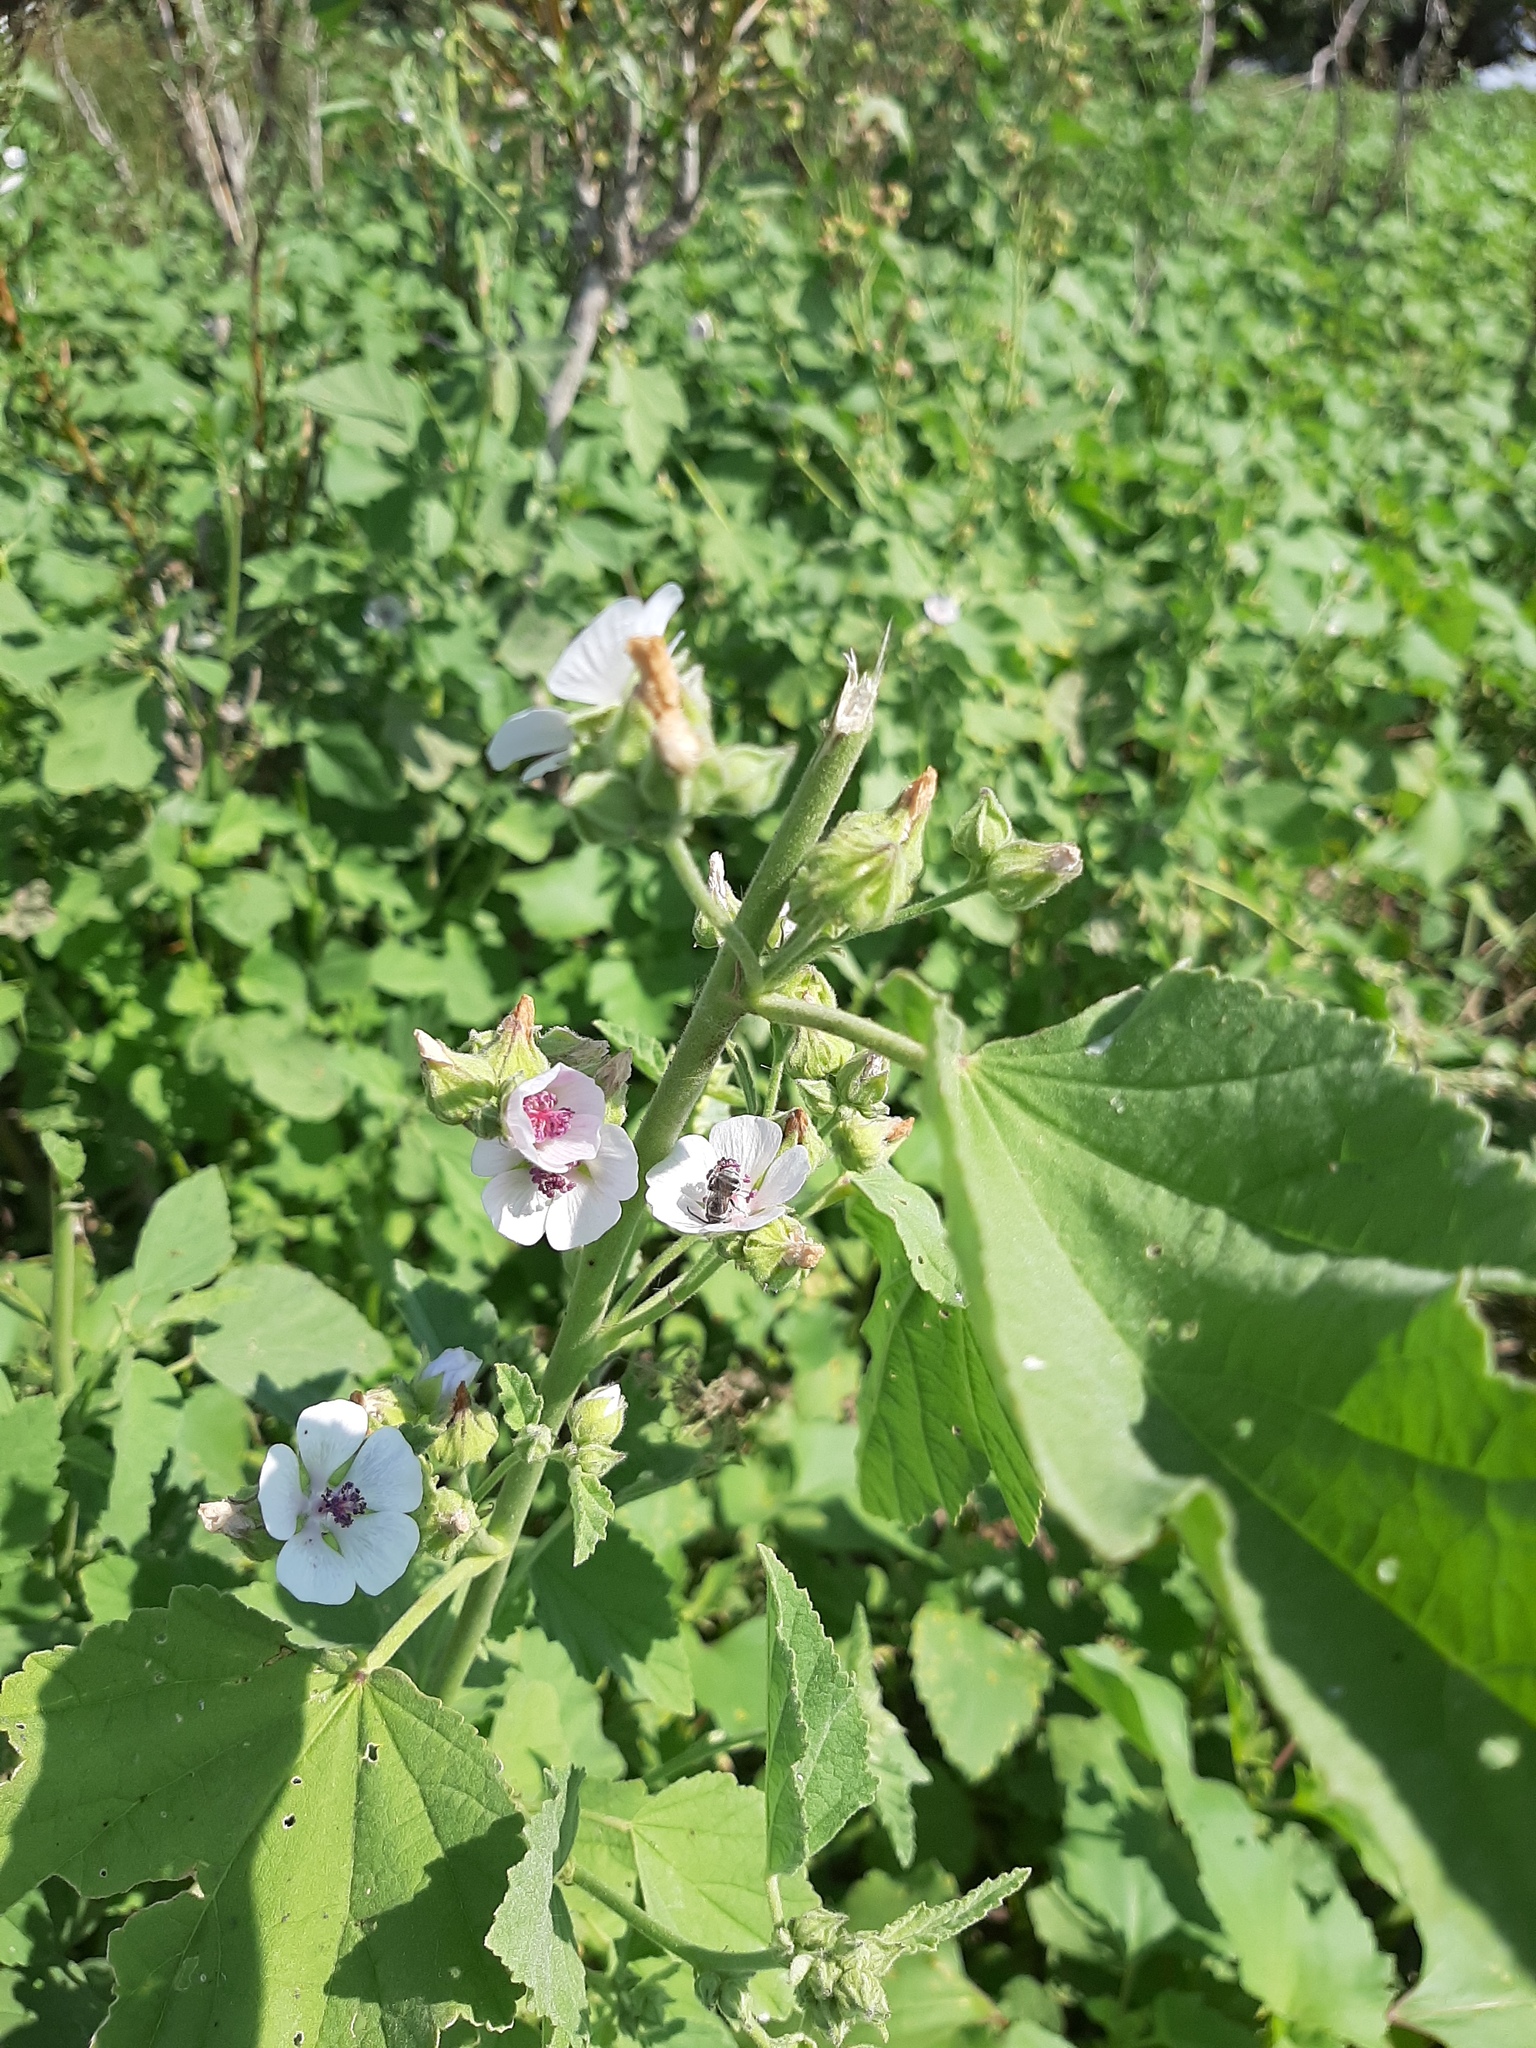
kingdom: Plantae
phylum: Tracheophyta
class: Magnoliopsida
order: Malvales
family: Malvaceae
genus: Althaea
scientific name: Althaea officinalis
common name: Marsh-mallow
